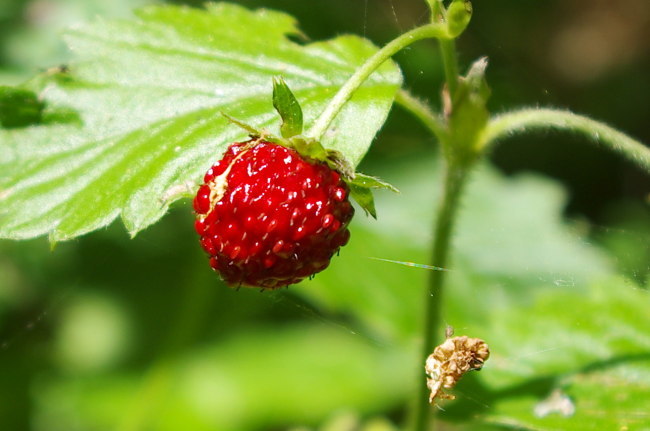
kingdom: Plantae
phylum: Tracheophyta
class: Magnoliopsida
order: Rosales
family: Rosaceae
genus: Fragaria
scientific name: Fragaria vesca
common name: Wild strawberry
